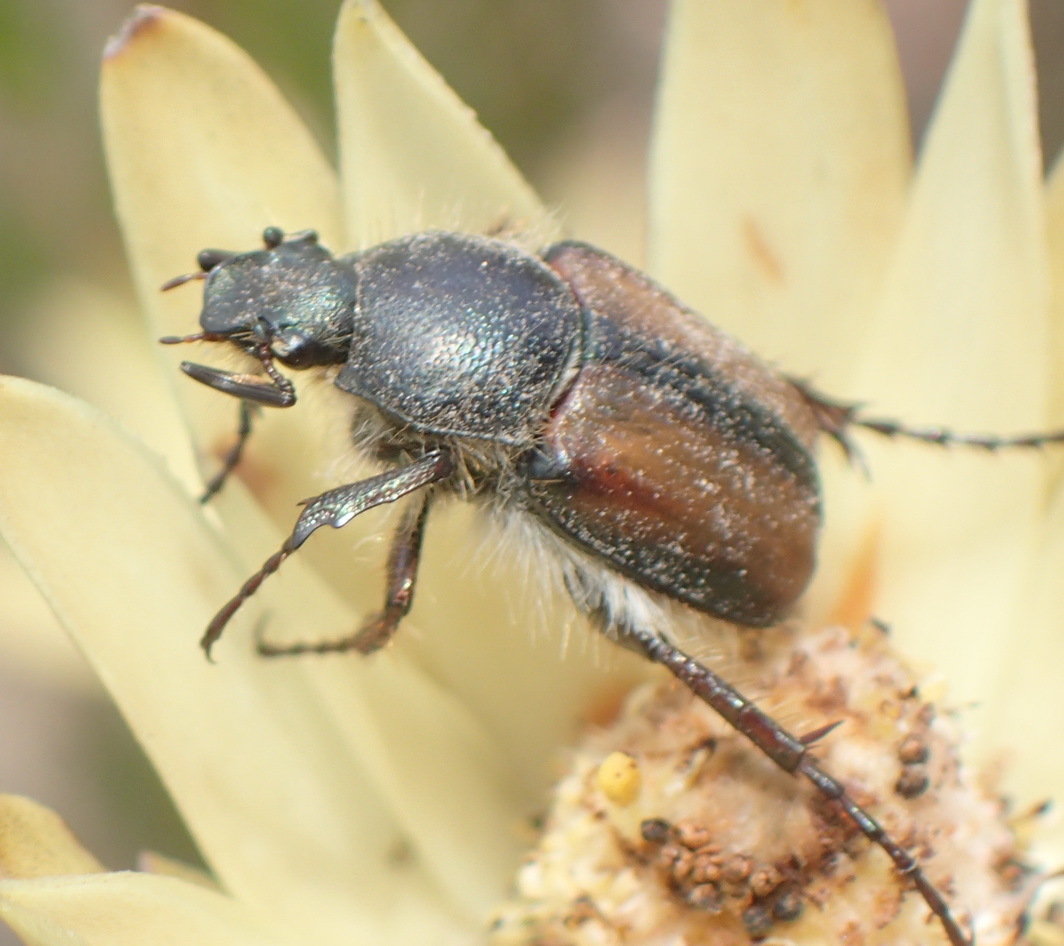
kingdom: Animalia
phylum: Arthropoda
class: Insecta
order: Coleoptera
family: Scarabaeidae
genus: Stegopterus
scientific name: Stegopterus septus
